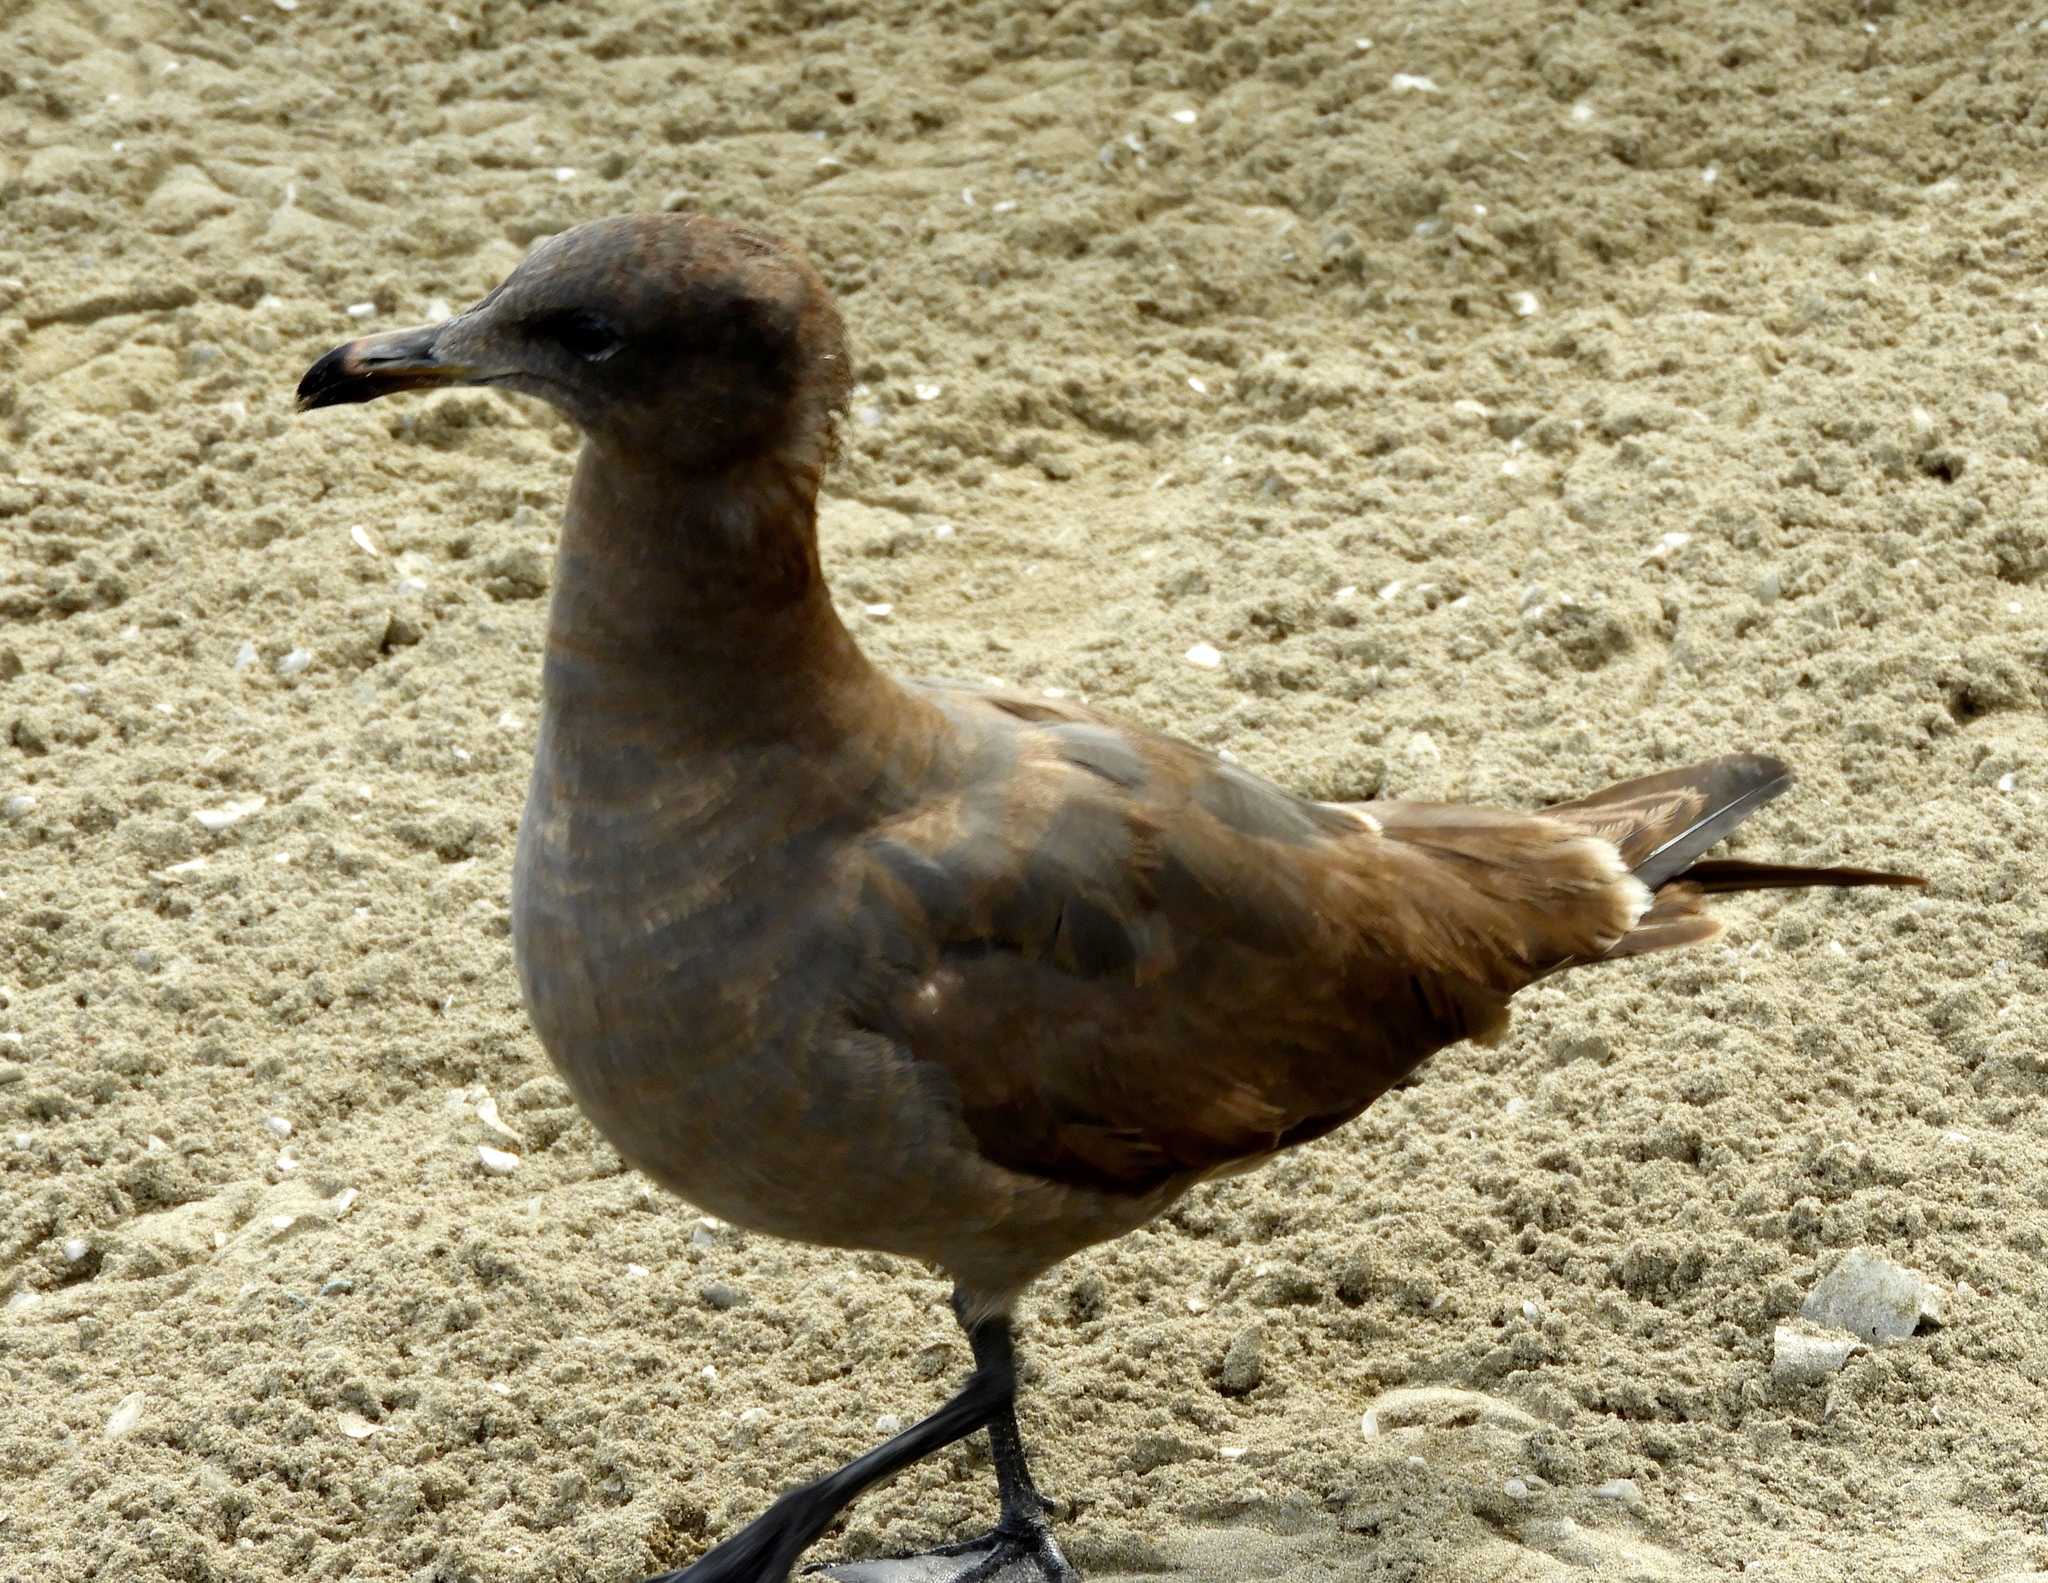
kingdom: Animalia
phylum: Chordata
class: Aves
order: Charadriiformes
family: Laridae
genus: Larus
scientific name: Larus heermanni
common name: Heermann's gull
